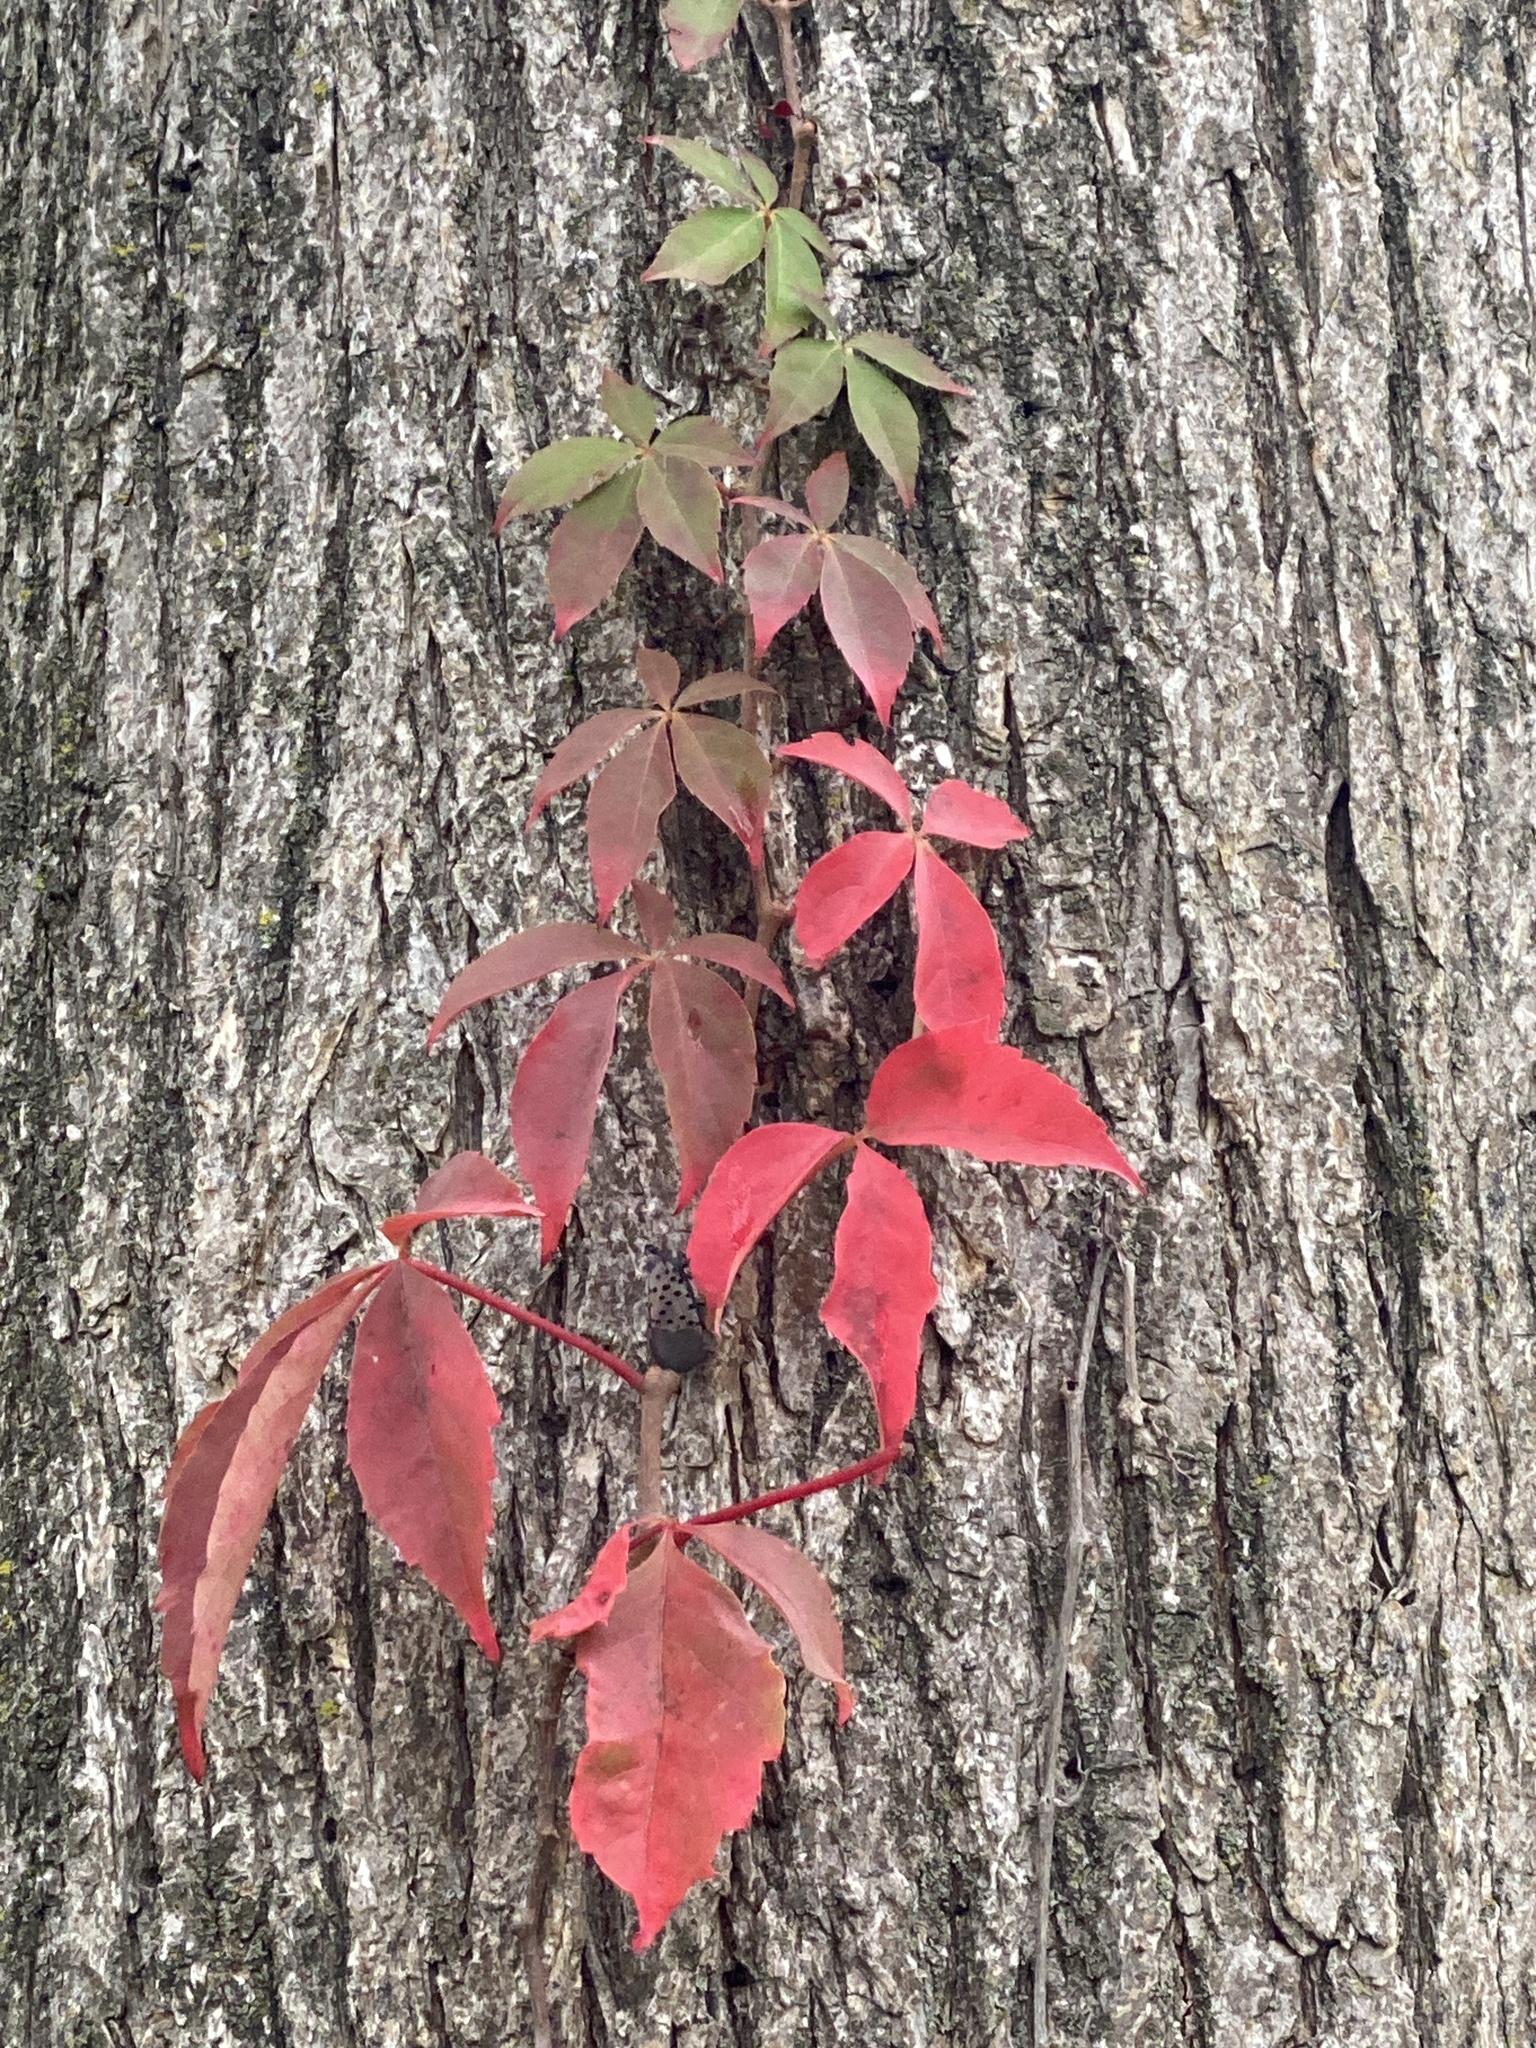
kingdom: Plantae
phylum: Tracheophyta
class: Magnoliopsida
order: Vitales
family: Vitaceae
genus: Parthenocissus
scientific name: Parthenocissus quinquefolia
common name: Virginia-creeper
